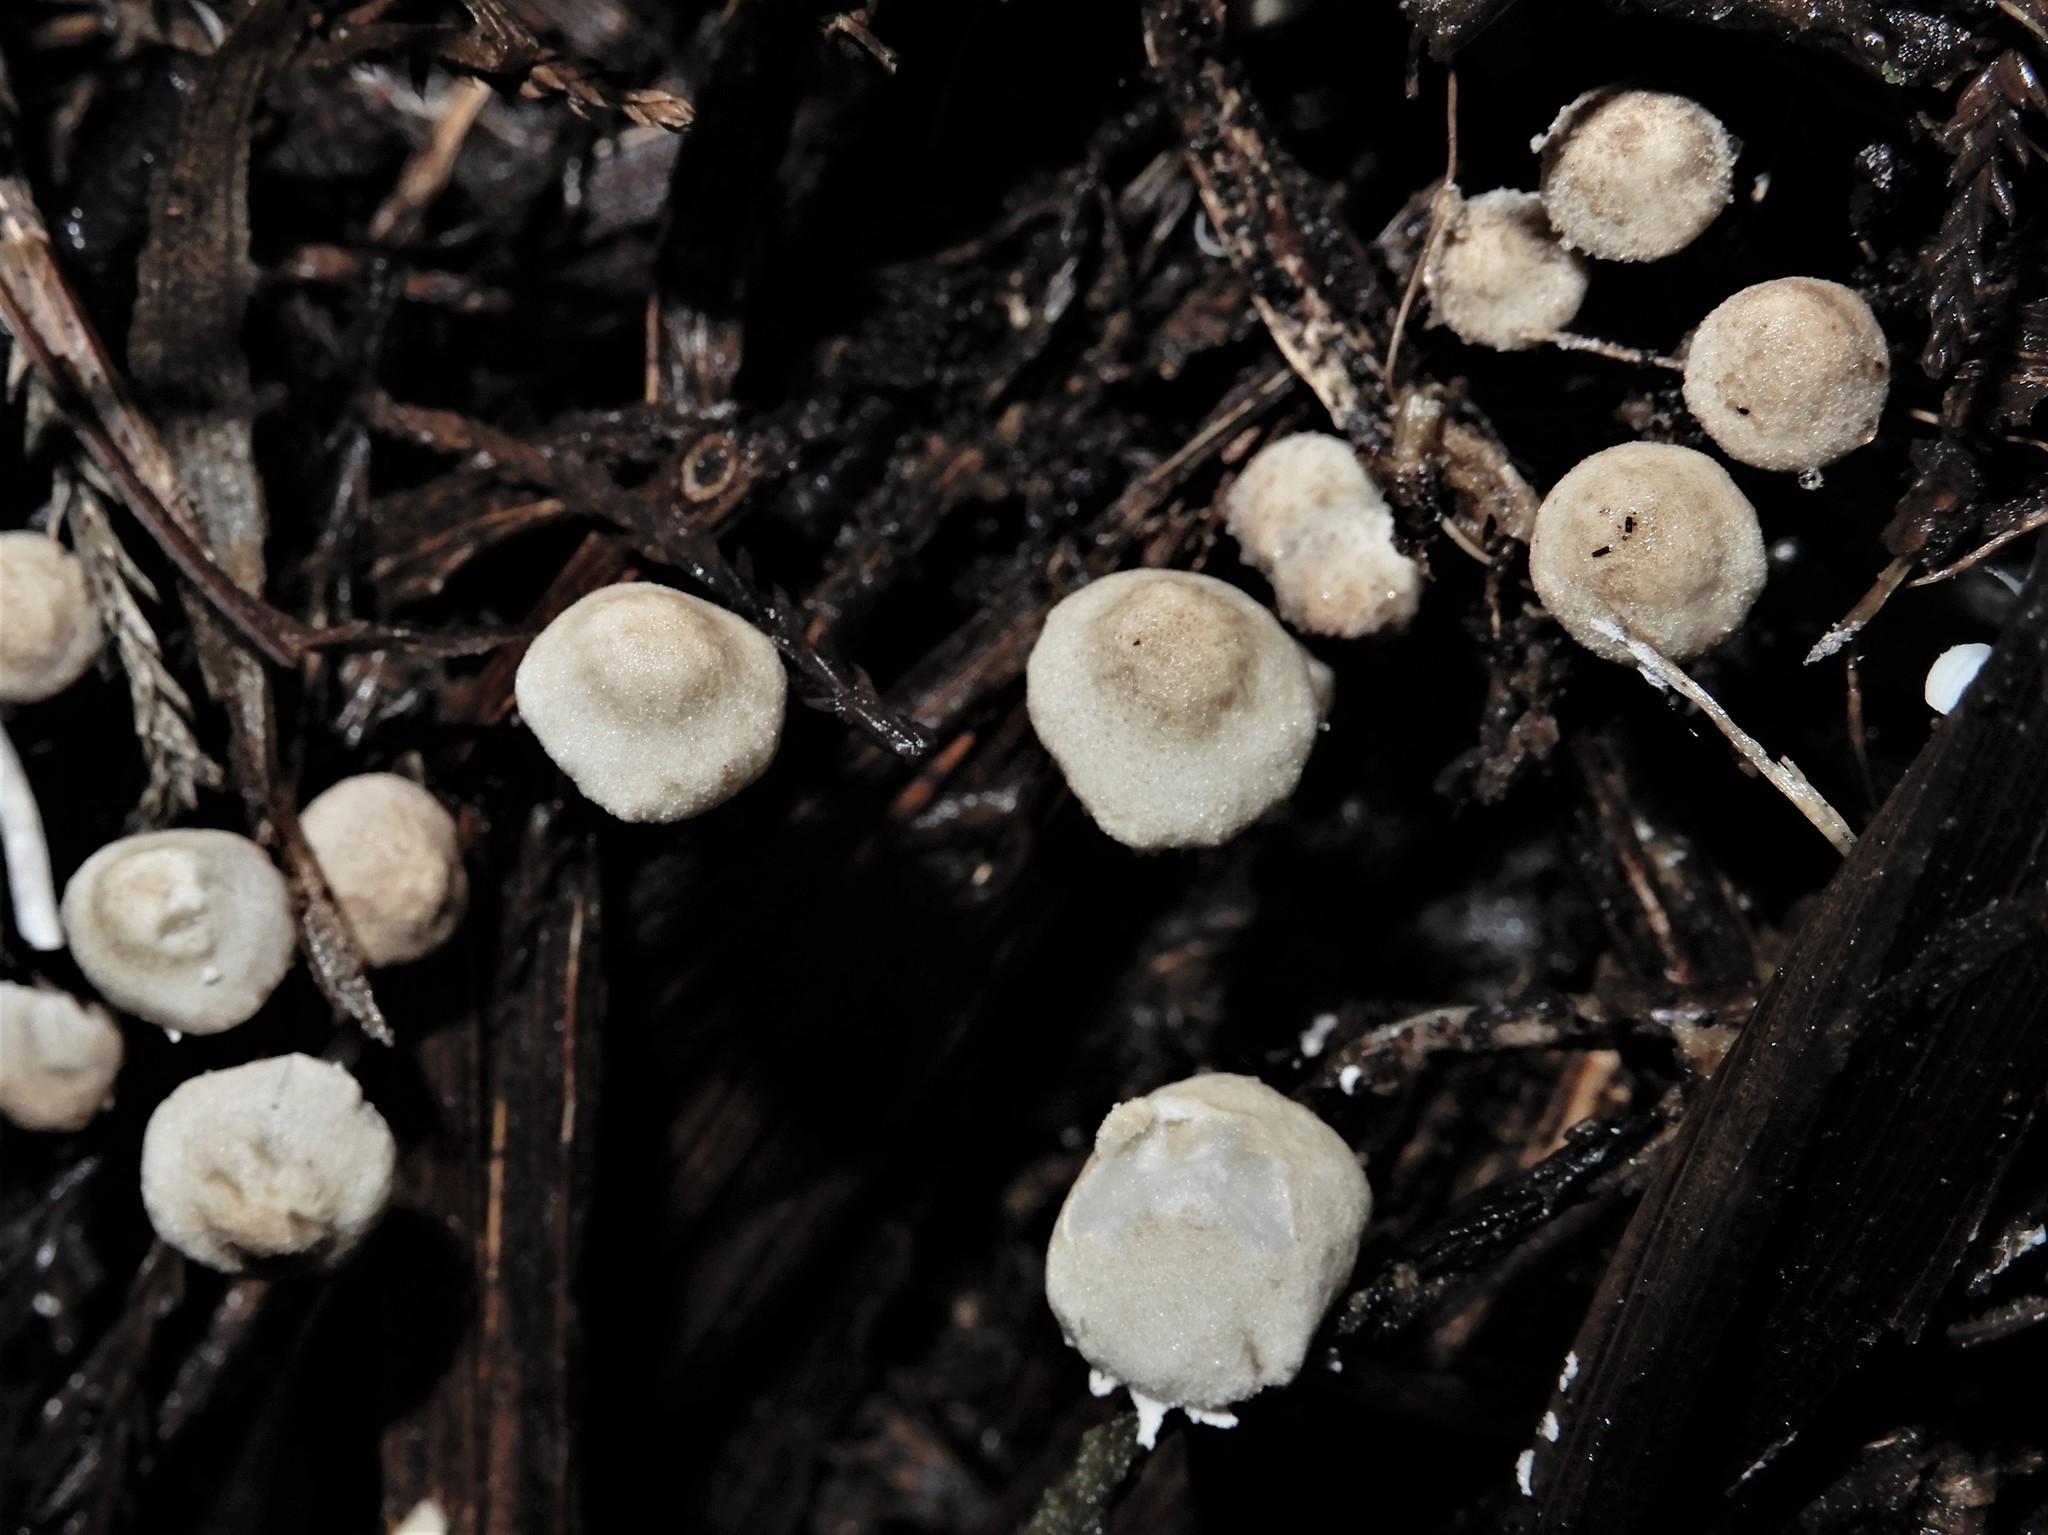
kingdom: Fungi
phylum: Basidiomycota
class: Agaricomycetes
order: Agaricales
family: Agaricaceae
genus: Cystolepiota
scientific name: Cystolepiota
